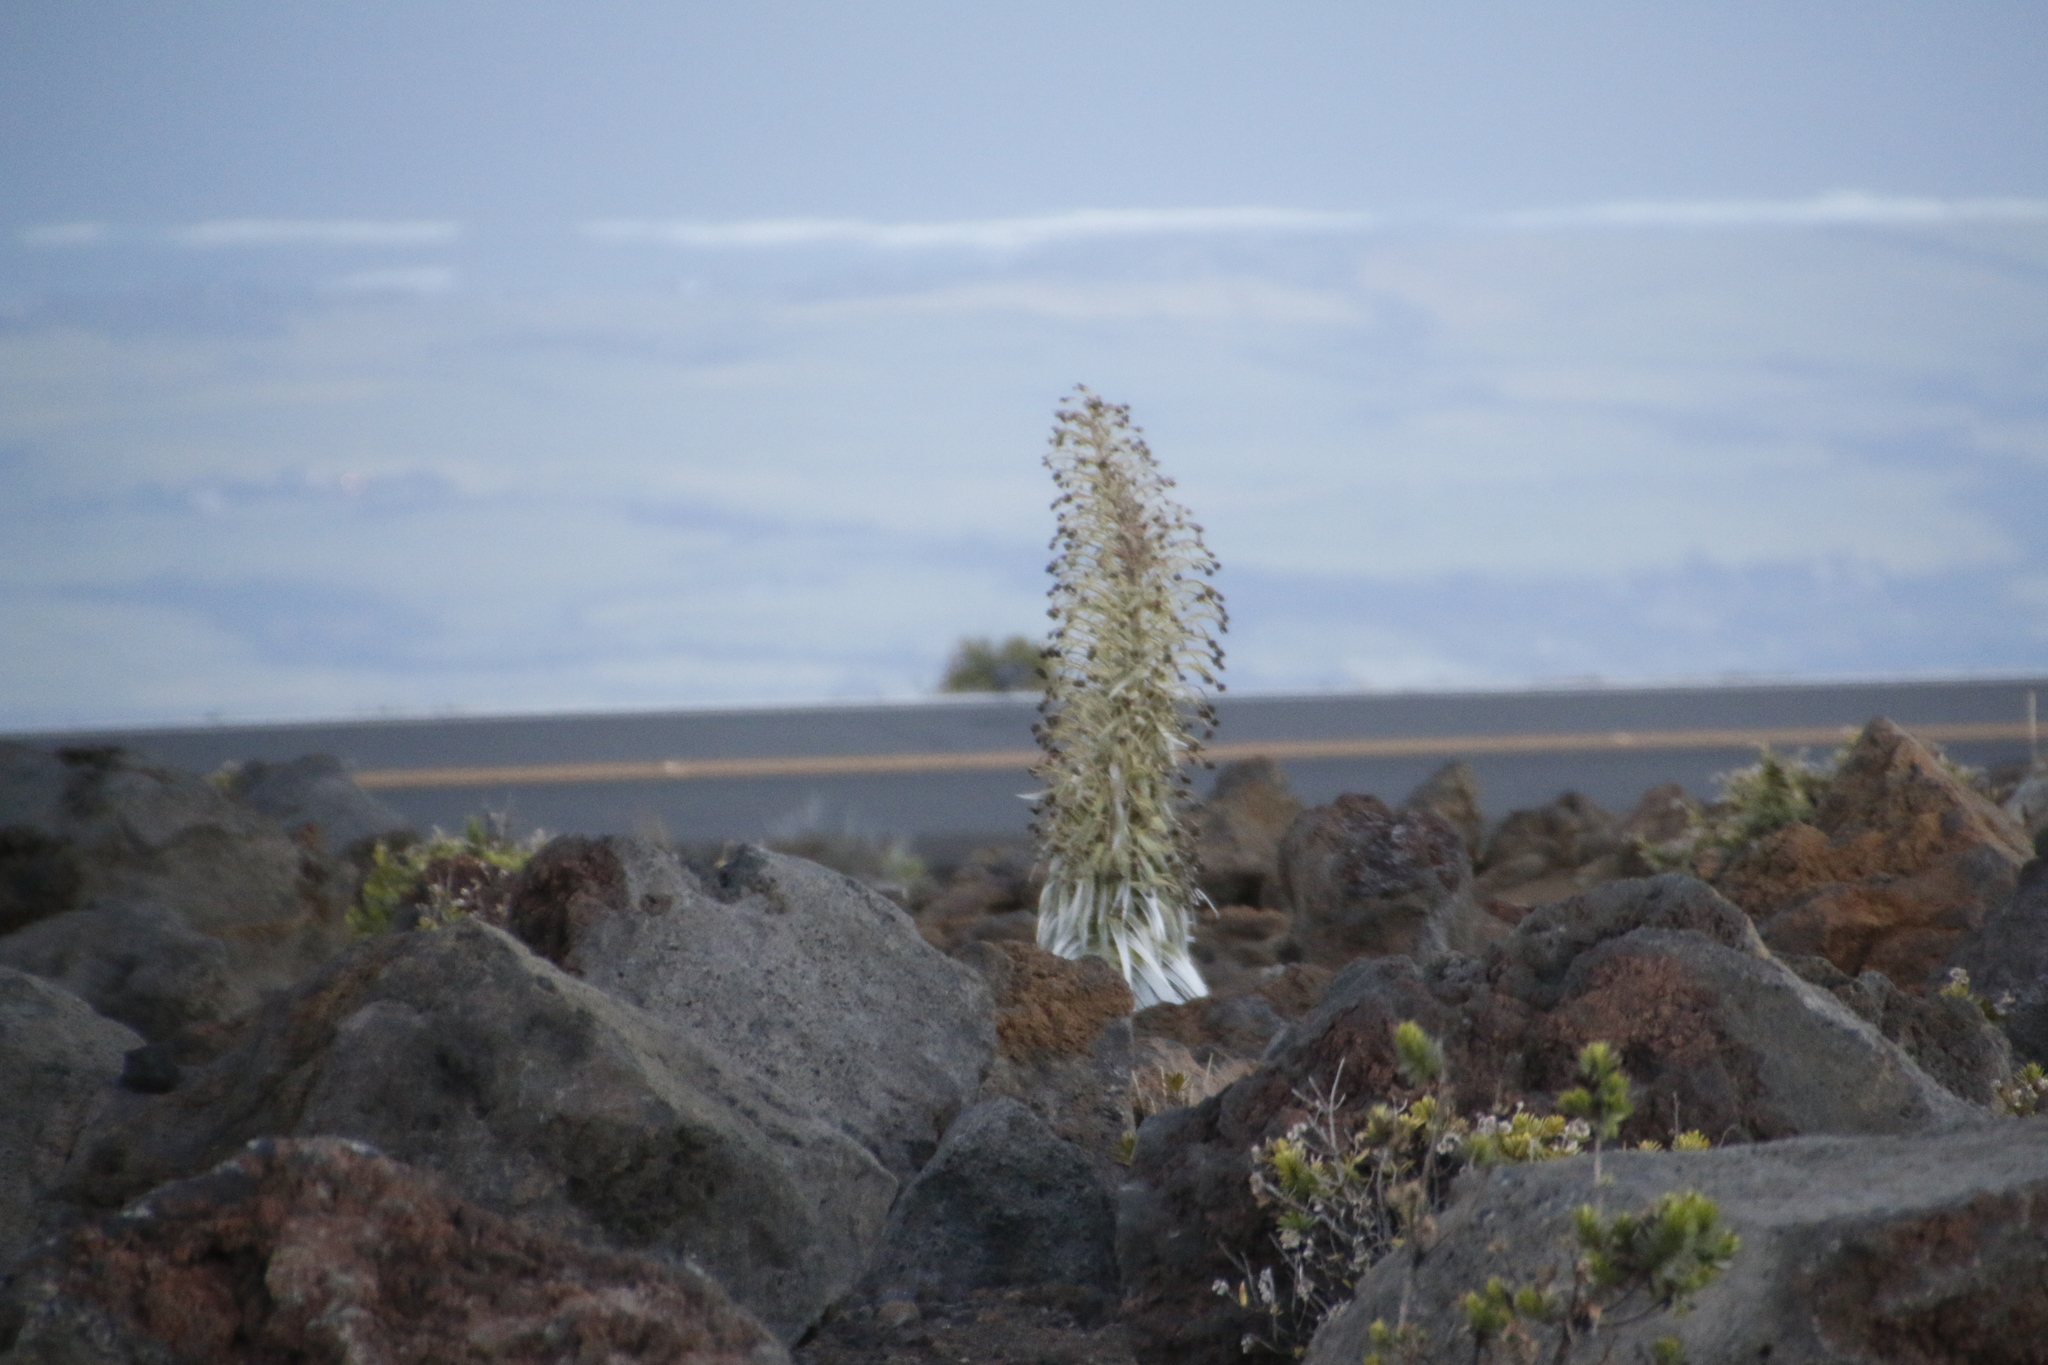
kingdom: Plantae
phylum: Tracheophyta
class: Magnoliopsida
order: Asterales
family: Asteraceae
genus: Argyroxiphium
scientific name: Argyroxiphium sandwicense
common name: Silversword
